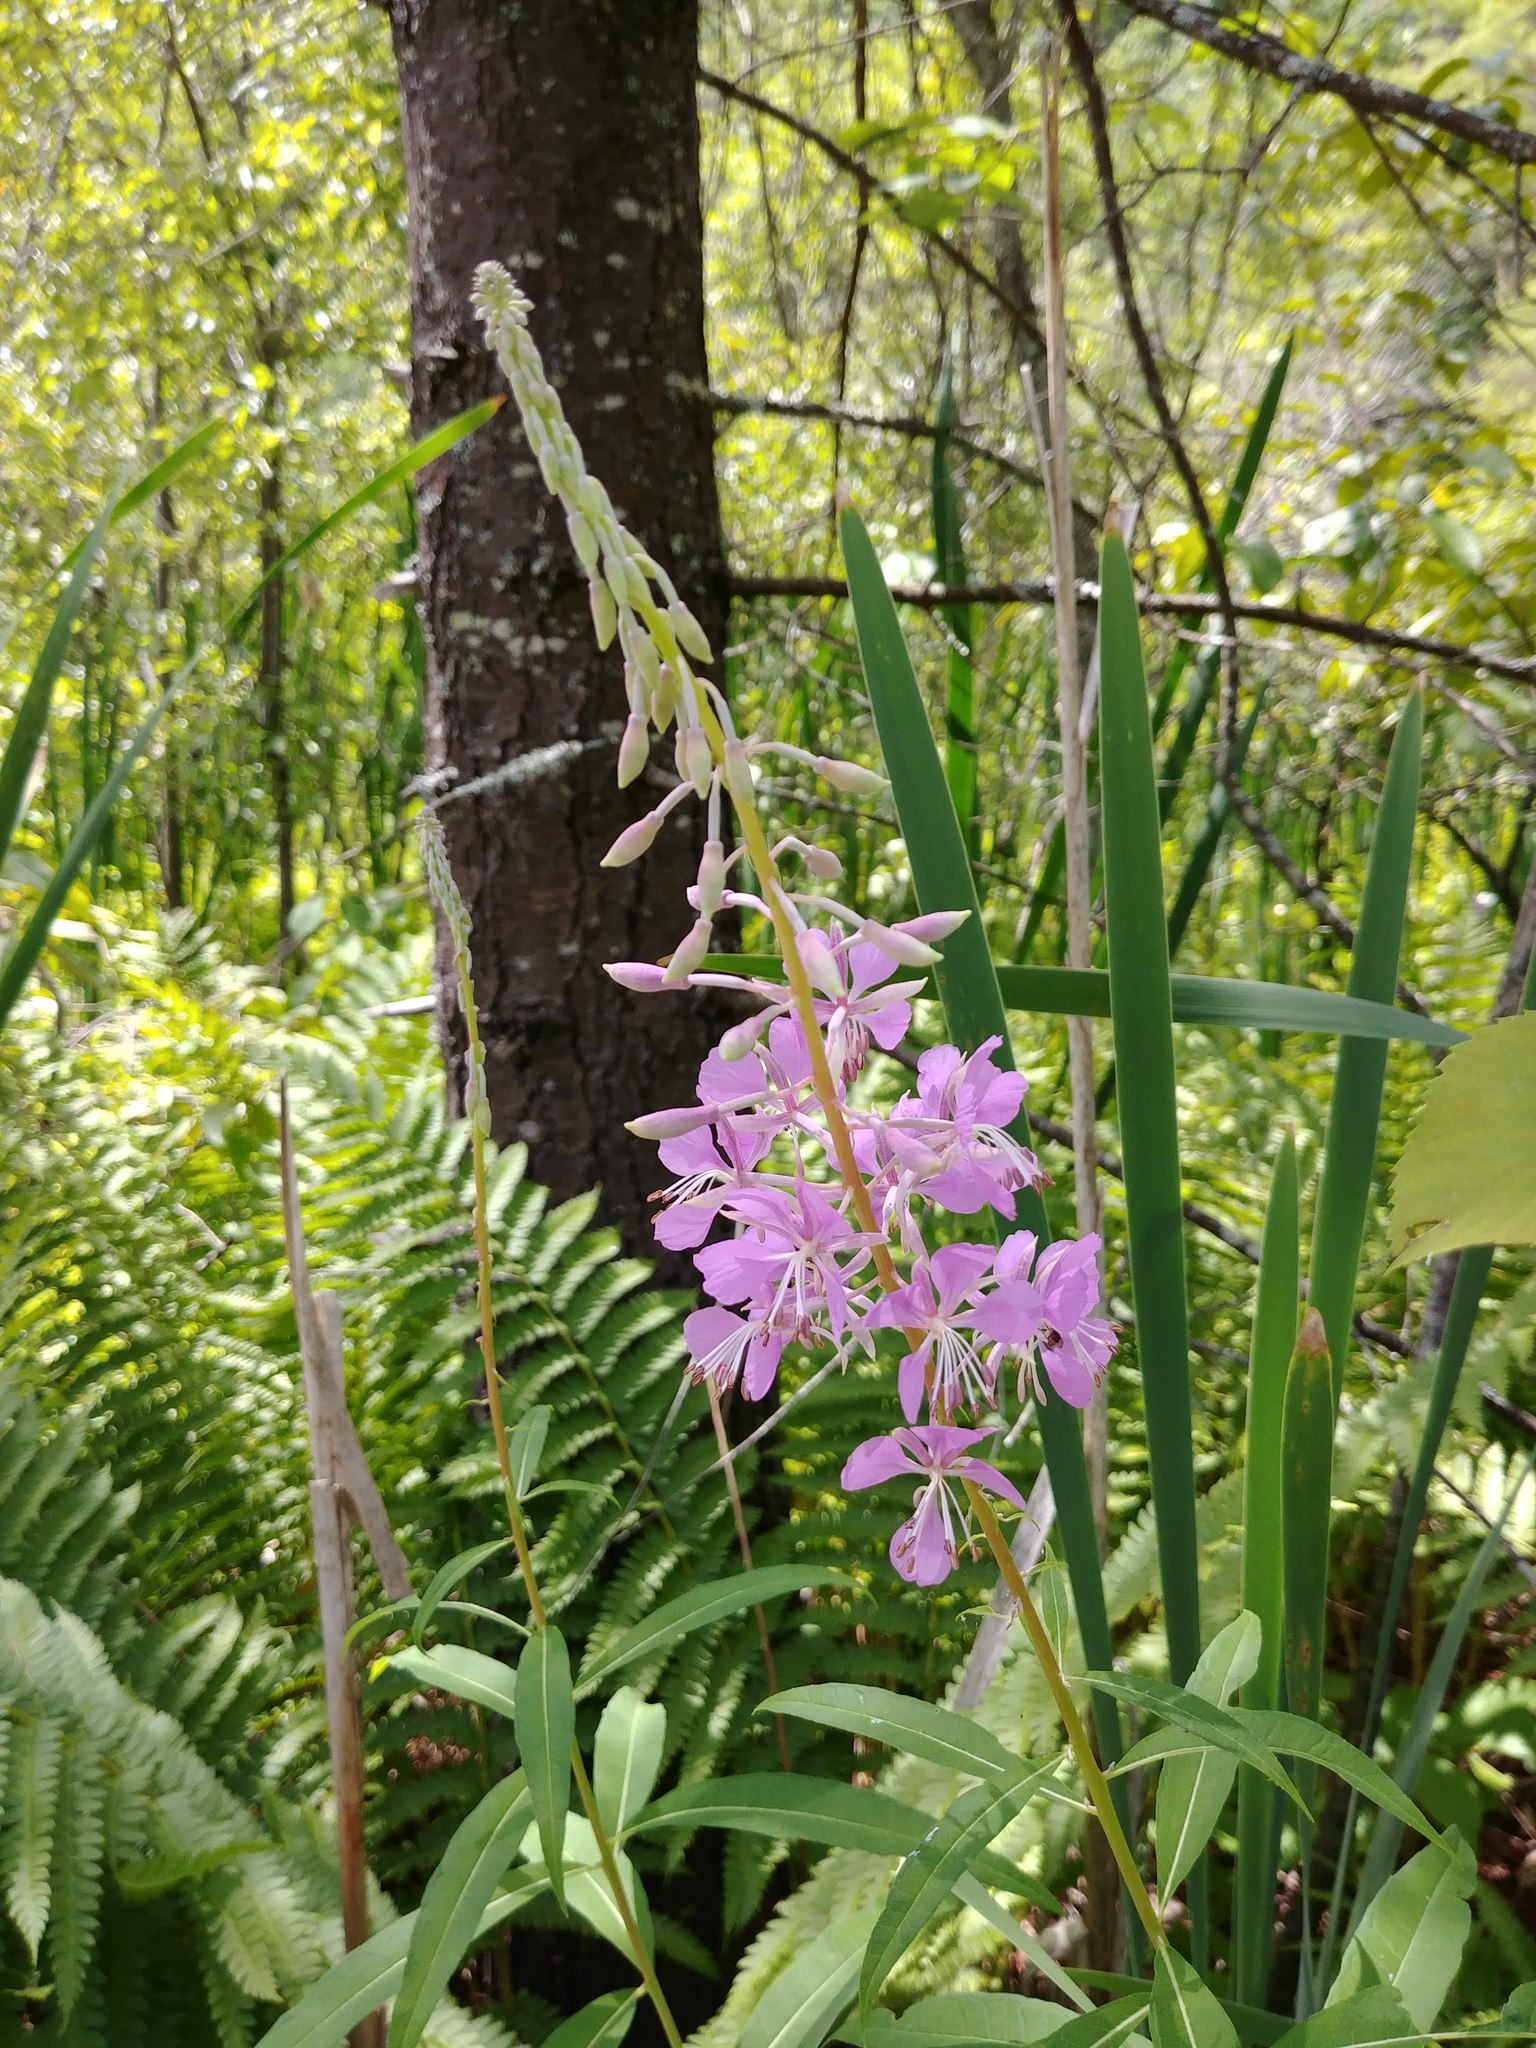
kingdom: Plantae
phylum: Tracheophyta
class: Magnoliopsida
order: Myrtales
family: Onagraceae
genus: Chamaenerion
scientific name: Chamaenerion angustifolium
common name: Fireweed
